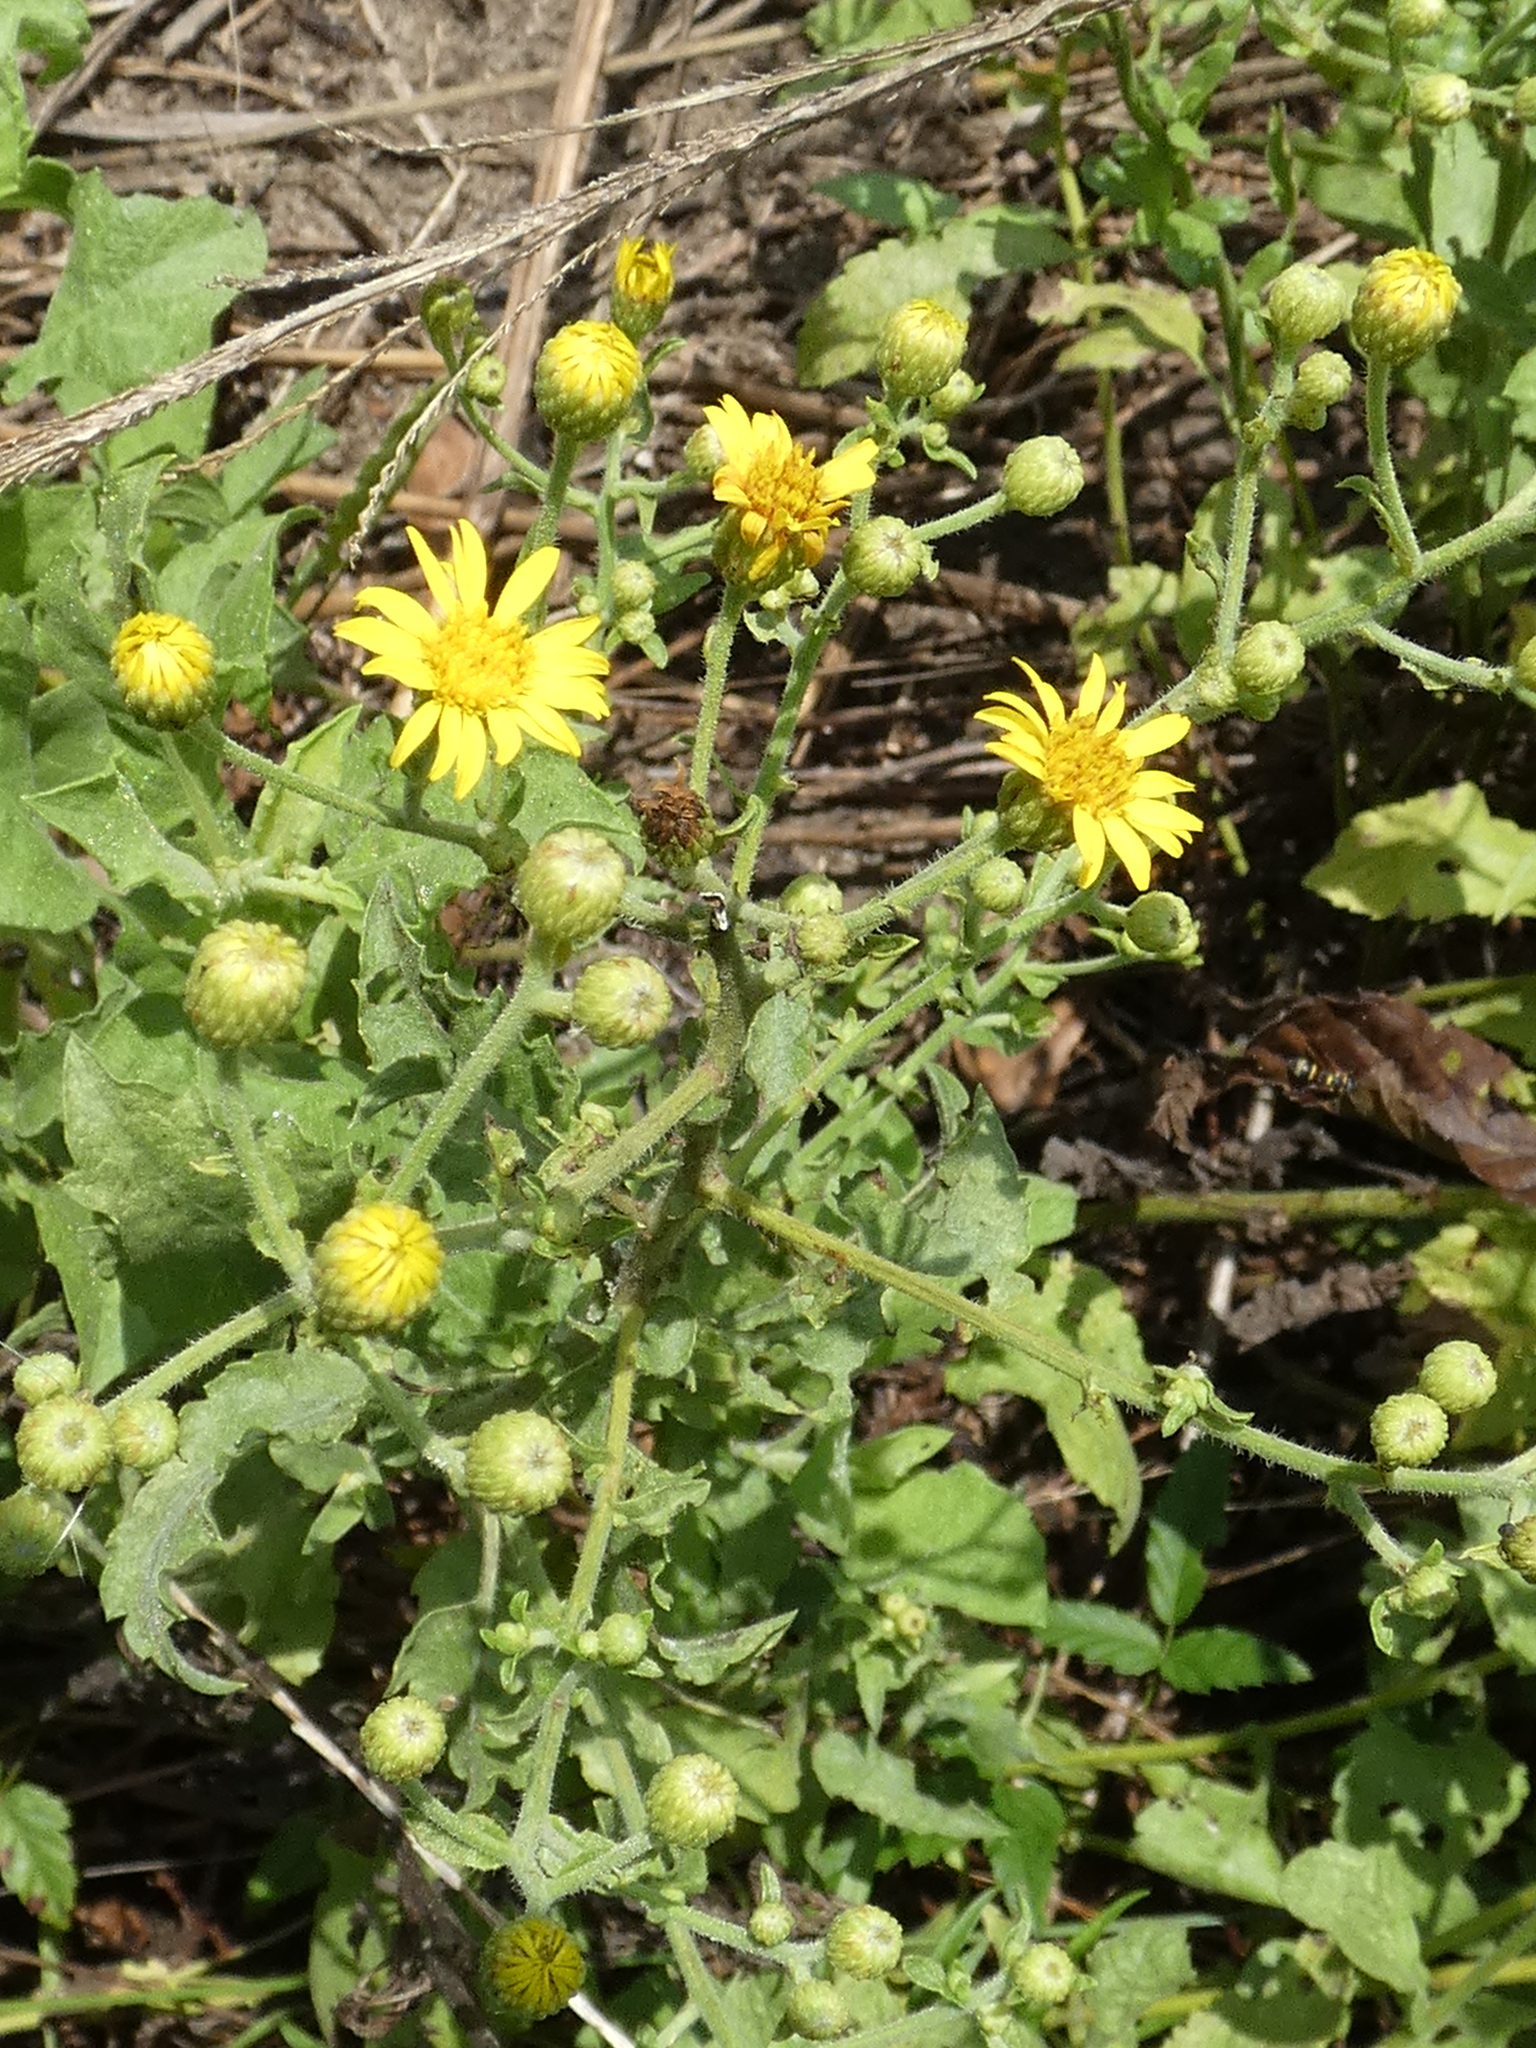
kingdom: Plantae
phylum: Tracheophyta
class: Magnoliopsida
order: Asterales
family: Asteraceae
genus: Heterotheca
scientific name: Heterotheca subaxillaris
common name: Camphorweed
